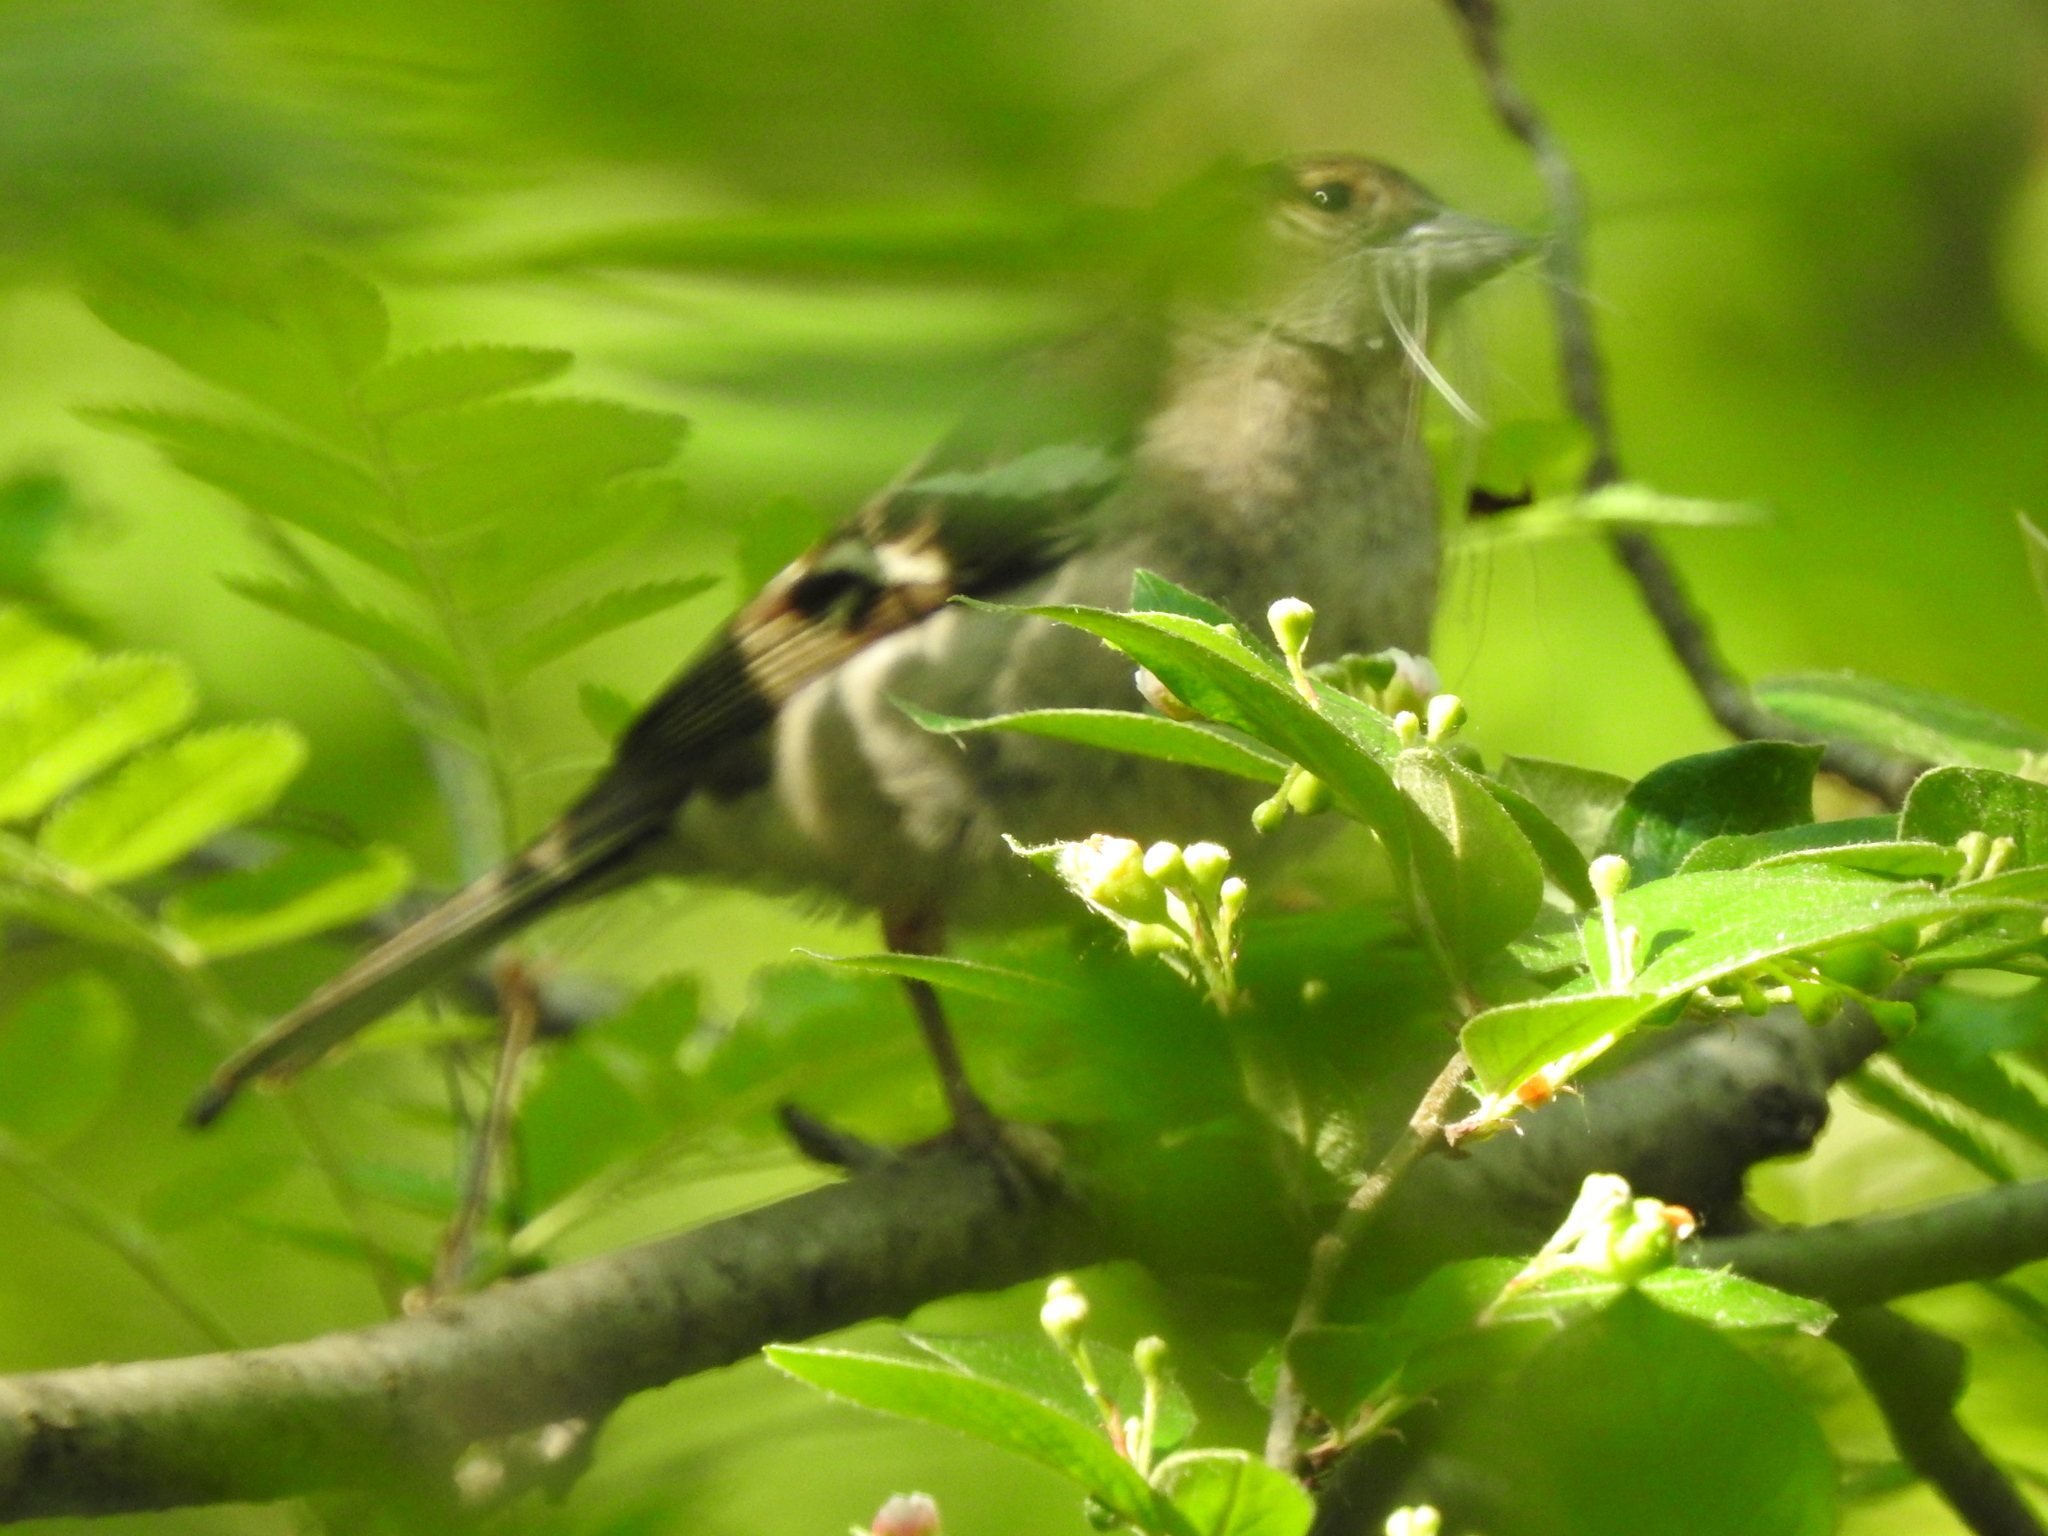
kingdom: Animalia
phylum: Chordata
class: Aves
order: Passeriformes
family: Fringillidae
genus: Fringilla
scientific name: Fringilla coelebs
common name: Common chaffinch
